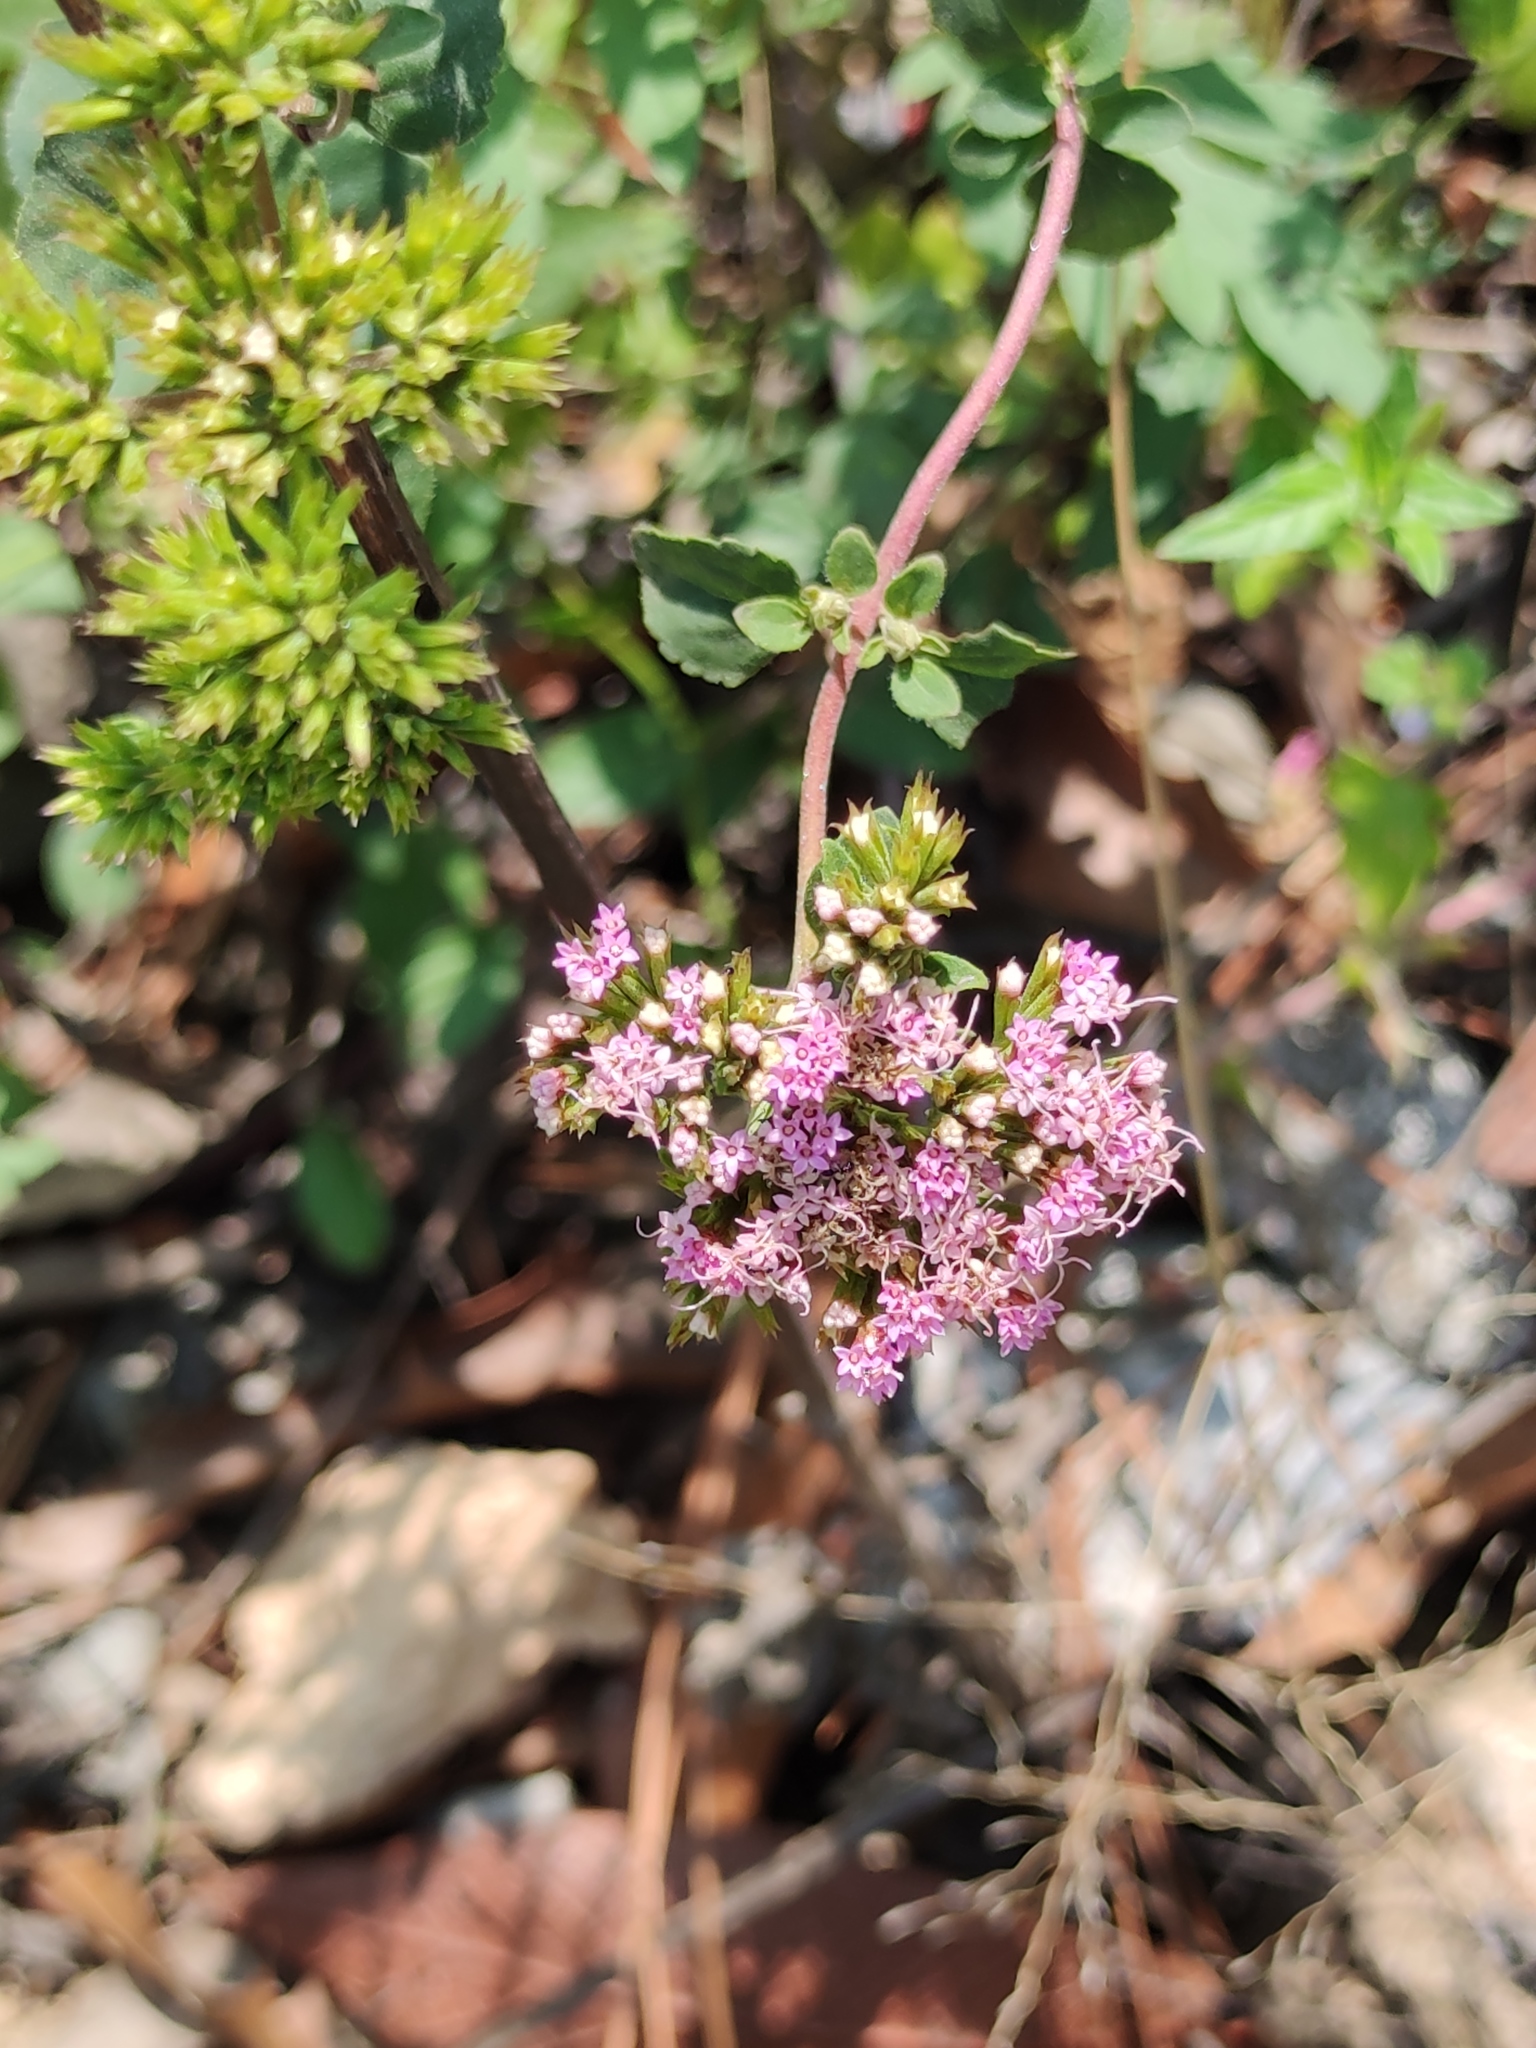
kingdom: Plantae
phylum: Tracheophyta
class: Magnoliopsida
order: Asterales
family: Asteraceae
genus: Stevia
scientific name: Stevia berlandieri
